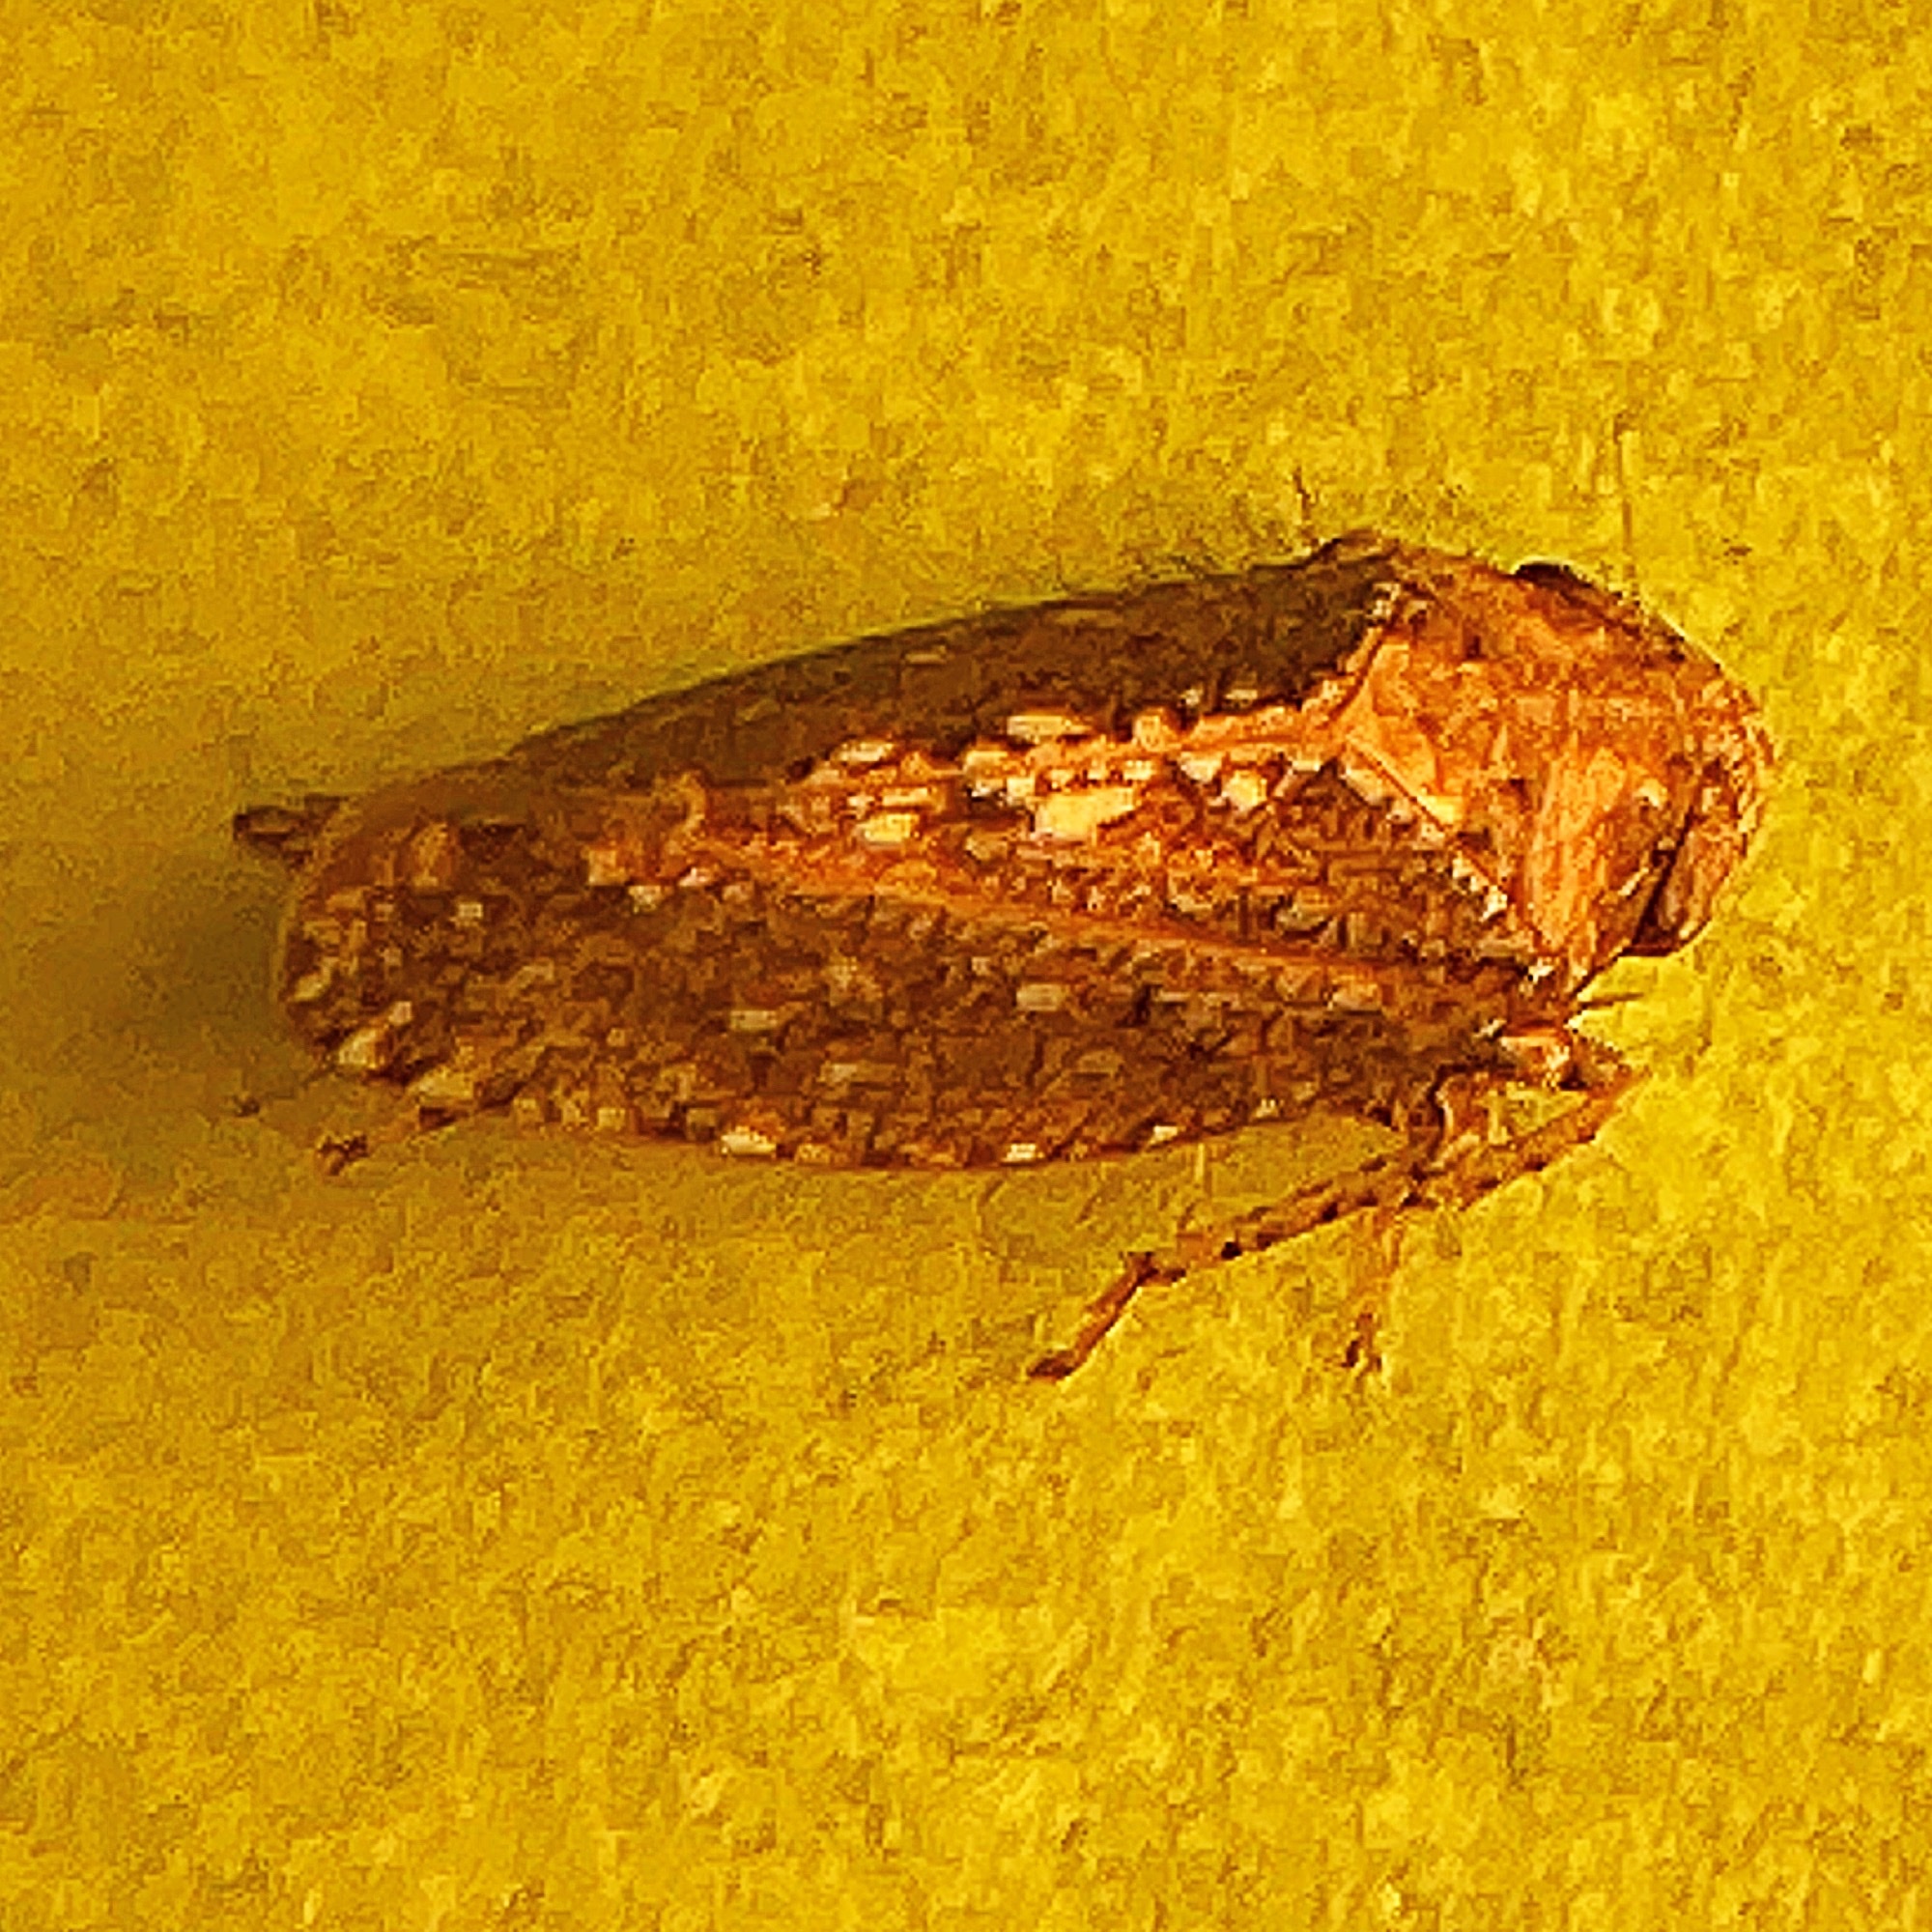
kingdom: Animalia
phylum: Arthropoda
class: Insecta
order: Hemiptera
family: Cicadellidae
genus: Excultanus
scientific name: Excultanus excultus
